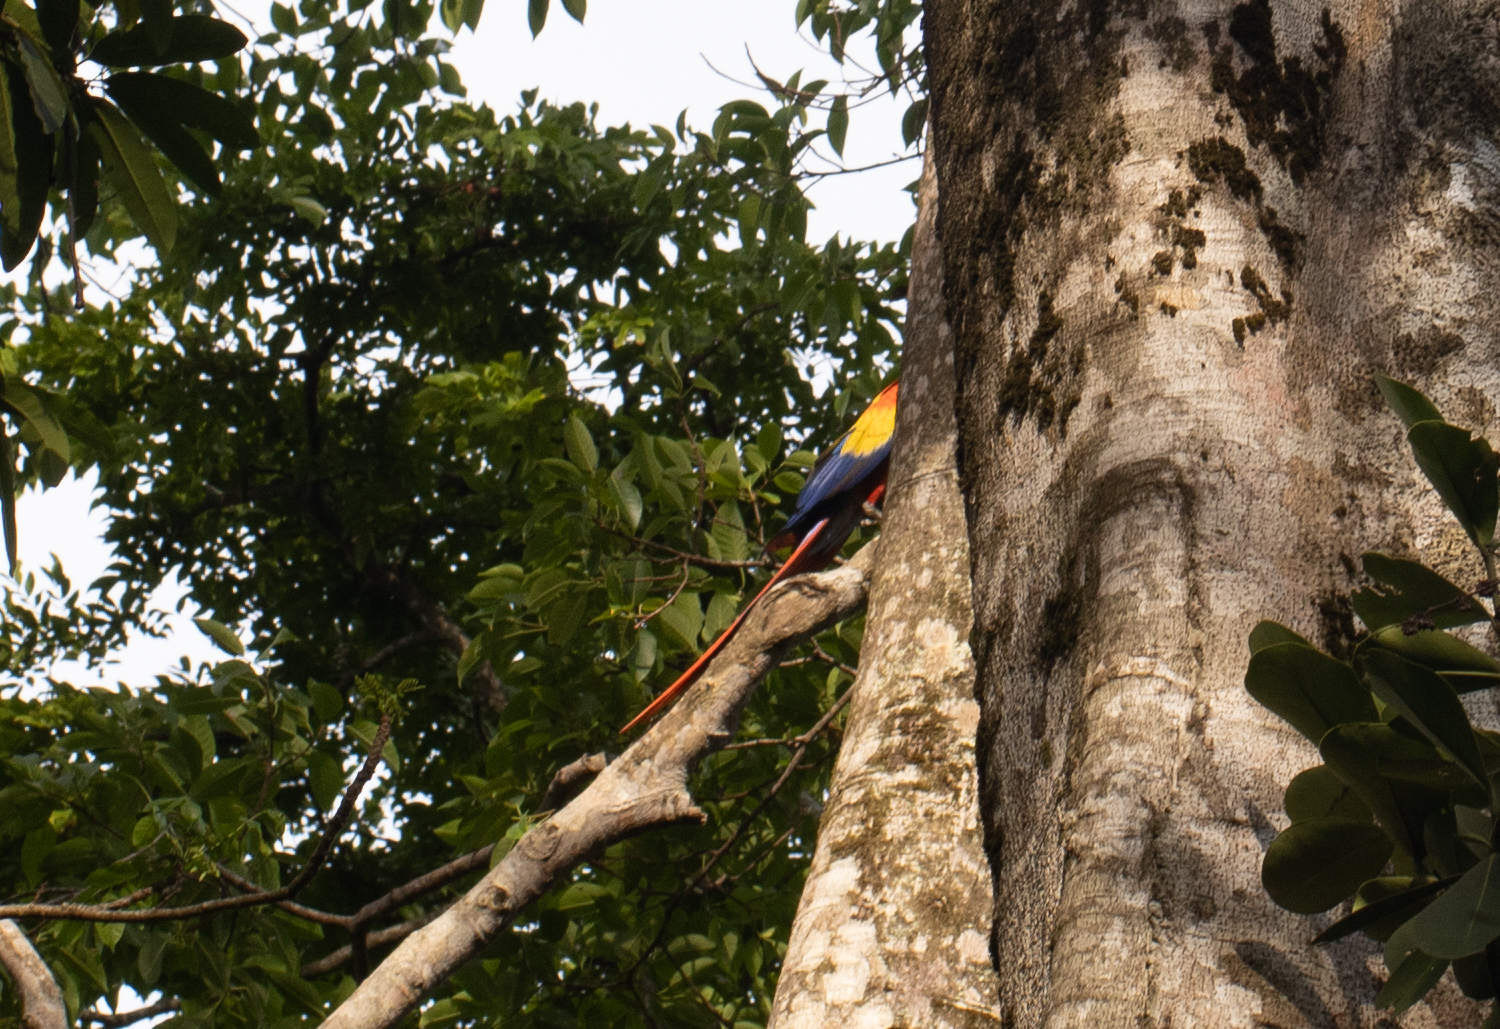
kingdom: Animalia
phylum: Chordata
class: Aves
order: Psittaciformes
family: Psittacidae
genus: Ara
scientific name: Ara macao
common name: Scarlet macaw
